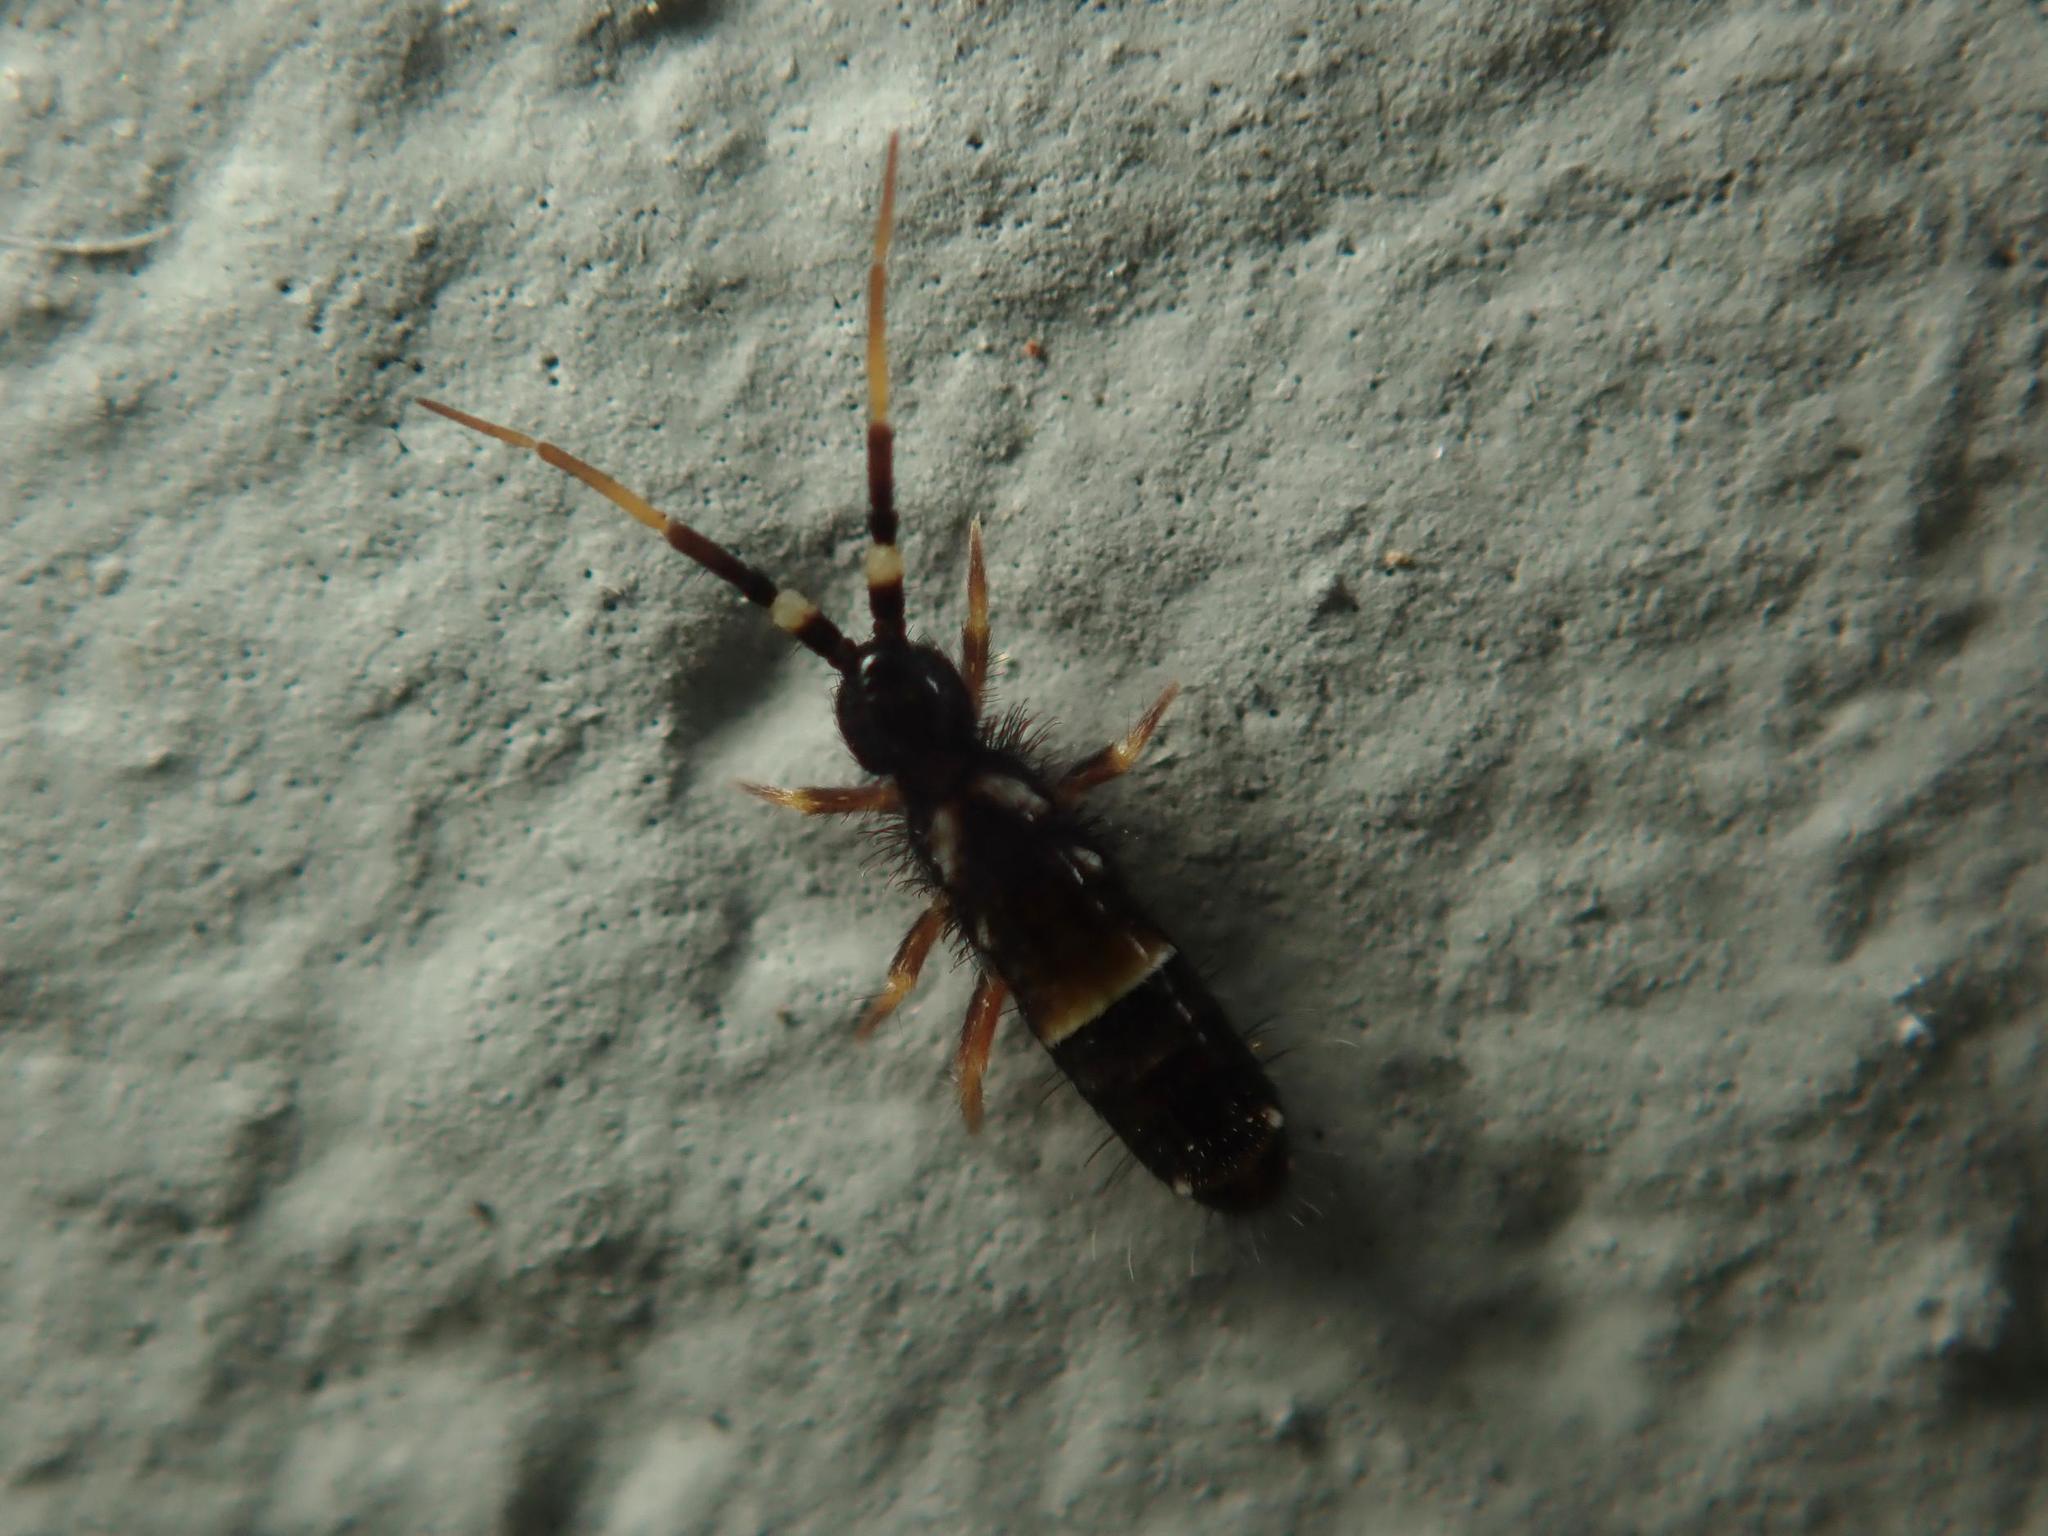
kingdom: Animalia
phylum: Arthropoda
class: Collembola
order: Entomobryomorpha
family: Orchesellidae
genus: Orchesella
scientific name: Orchesella cincta
